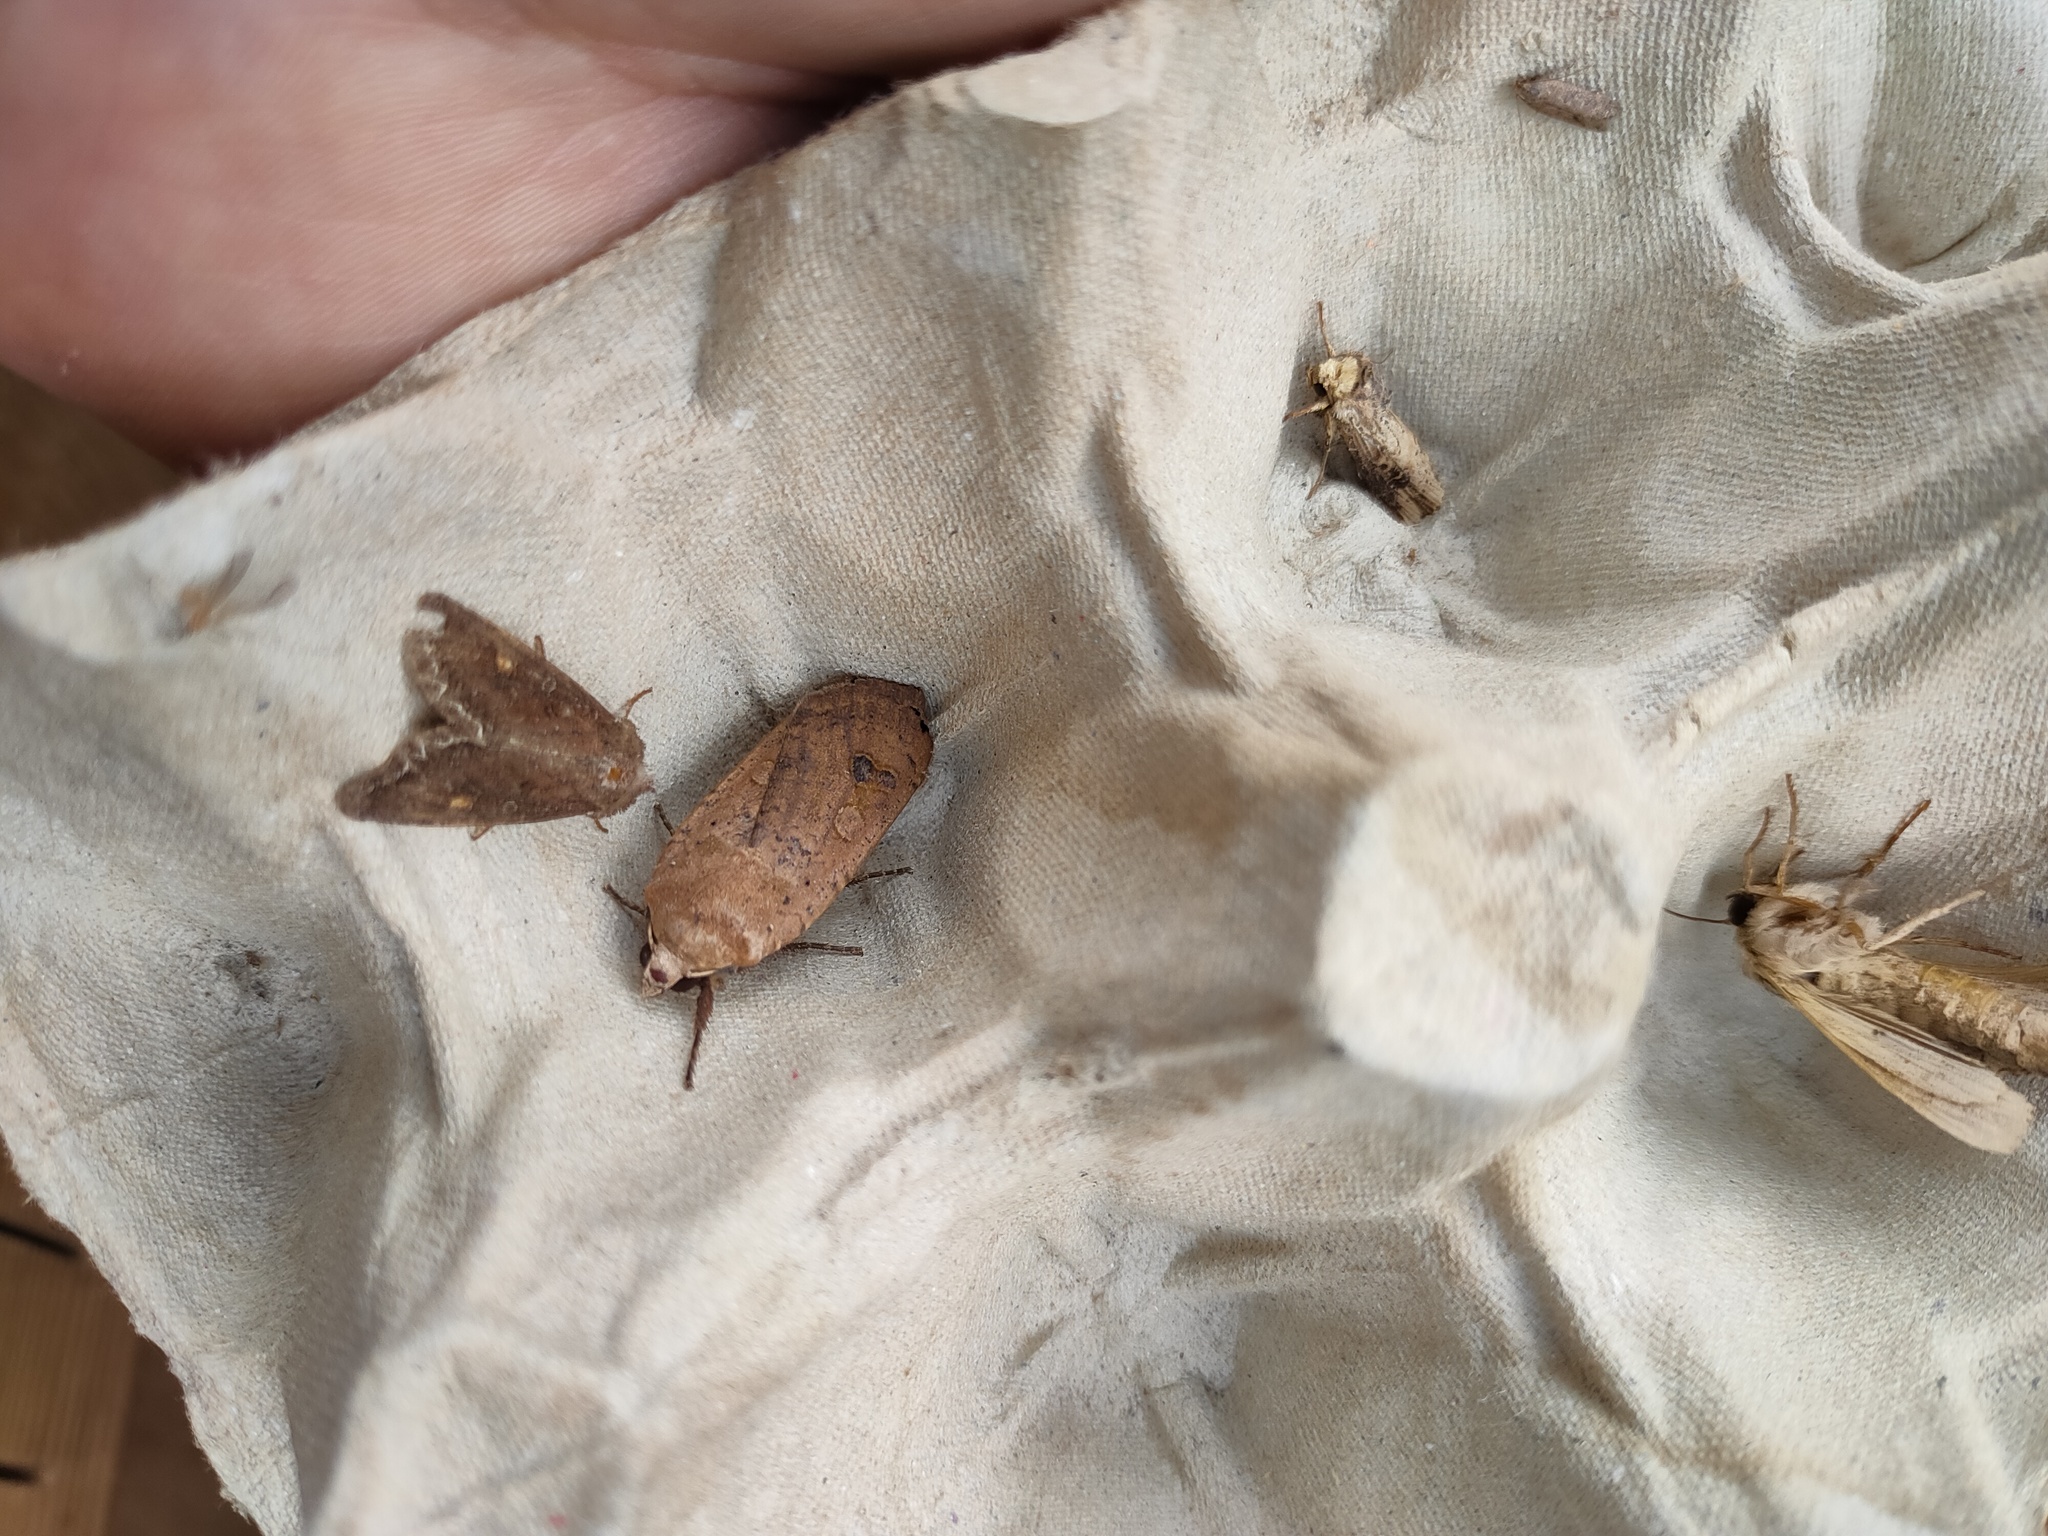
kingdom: Animalia
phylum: Arthropoda
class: Insecta
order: Lepidoptera
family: Noctuidae
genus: Noctua
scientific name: Noctua pronuba
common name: Large yellow underwing
